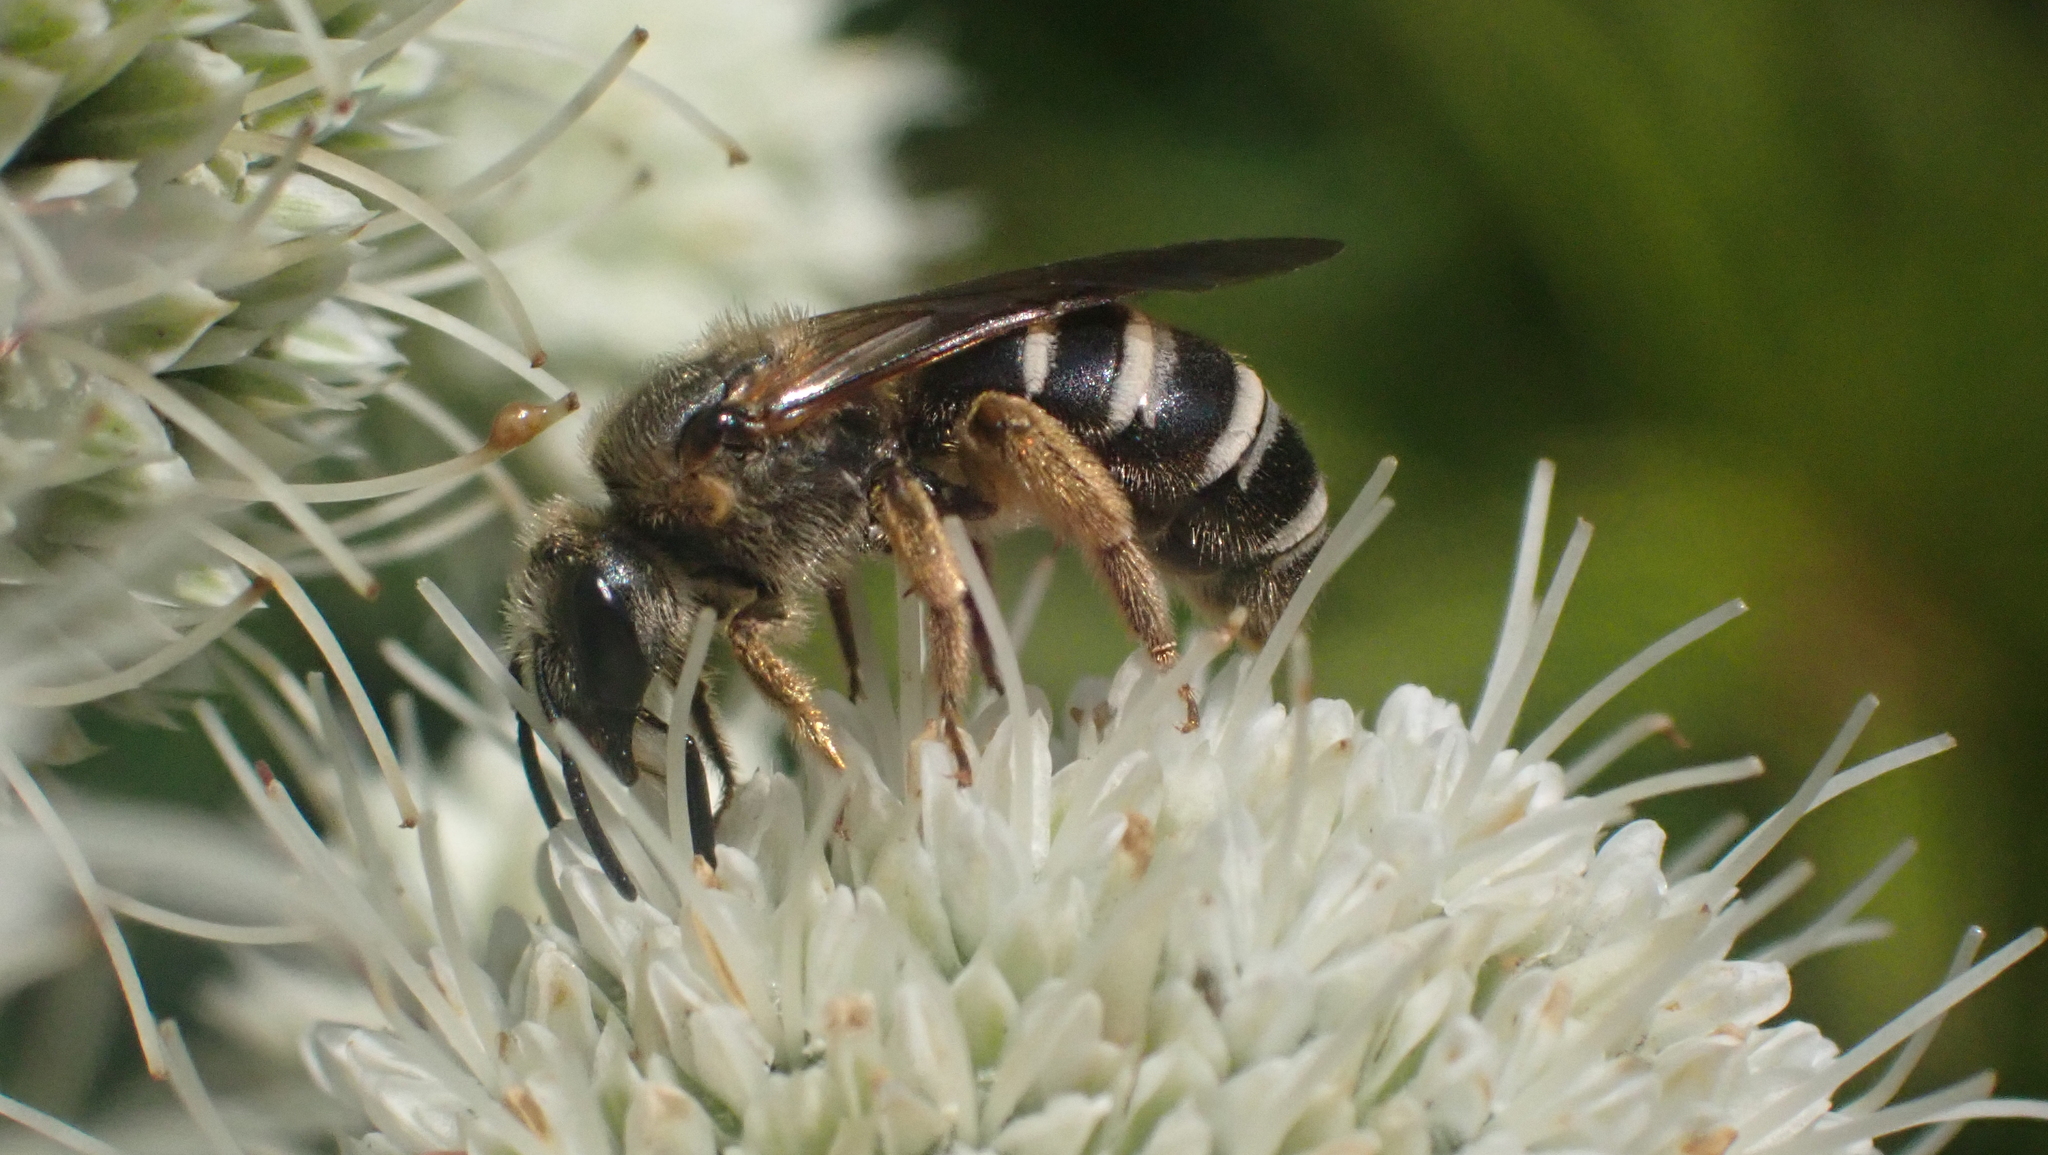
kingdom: Animalia
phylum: Arthropoda
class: Insecta
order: Hymenoptera
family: Halictidae
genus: Halictus
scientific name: Halictus rubicundus
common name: Orange-legged furrow bee
